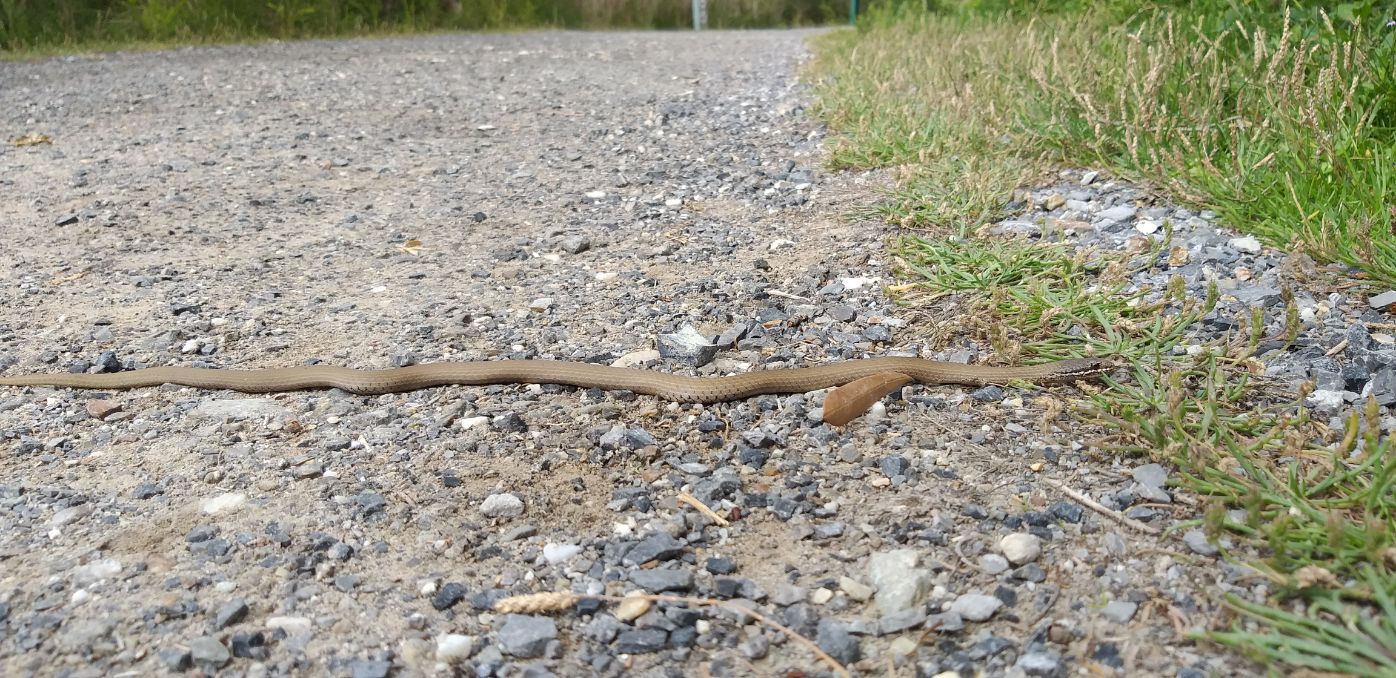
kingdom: Animalia
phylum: Chordata
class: Squamata
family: Elapidae
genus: Drysdalia
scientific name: Drysdalia coronoides
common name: White-lipped snake
